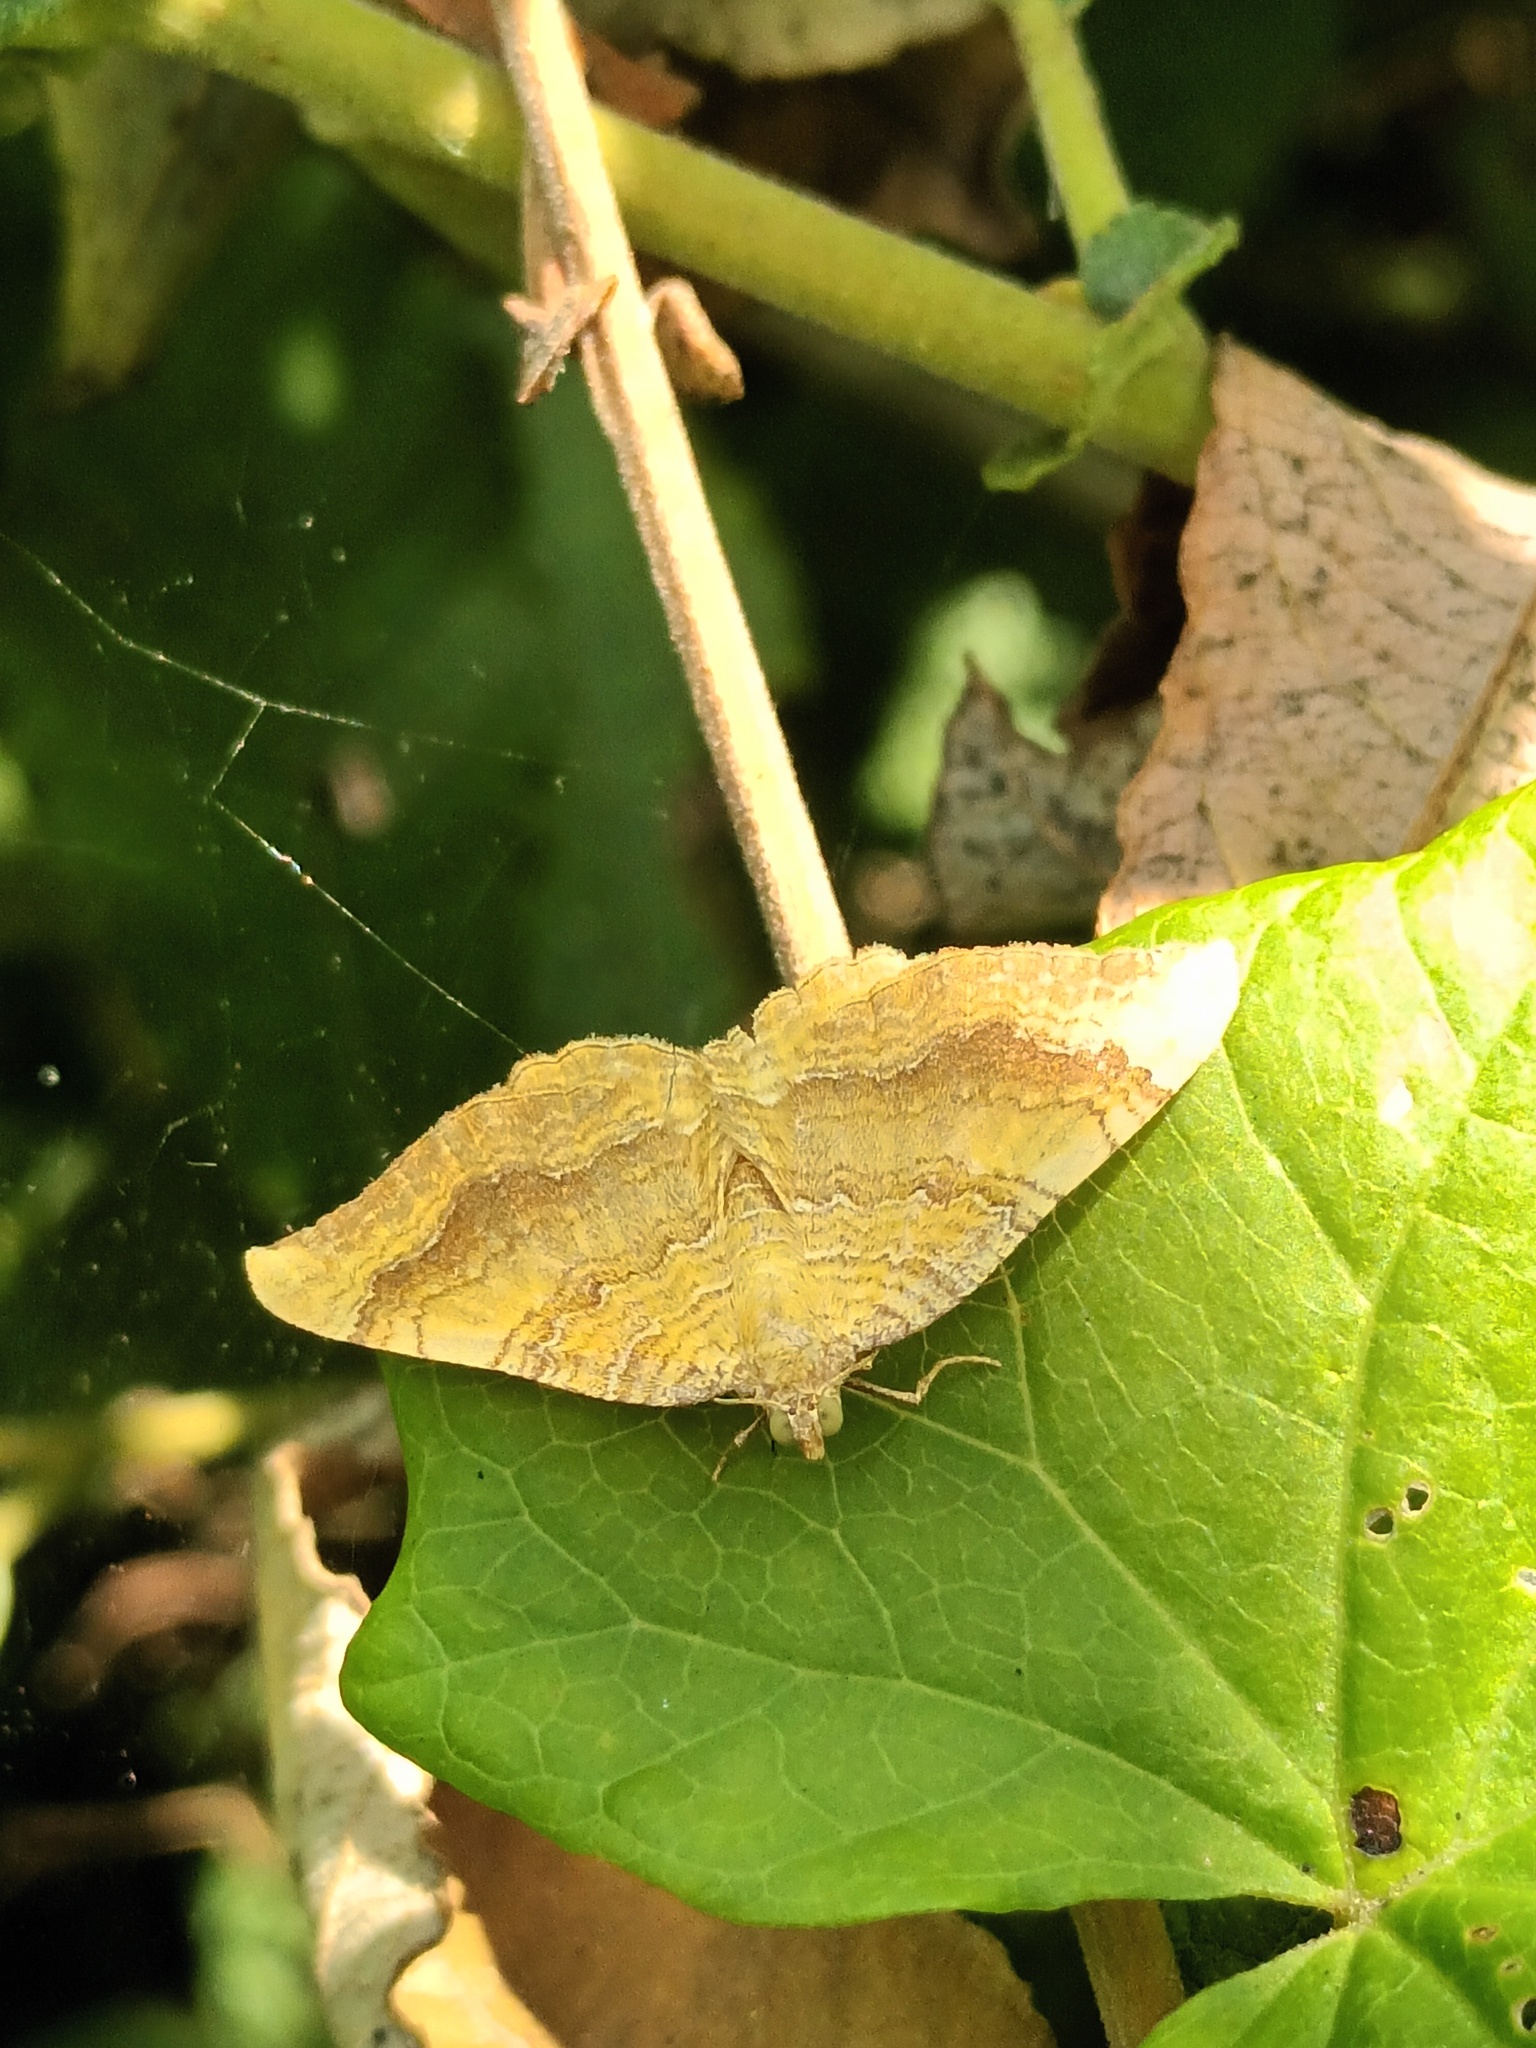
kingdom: Animalia
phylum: Arthropoda
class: Insecta
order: Lepidoptera
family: Geometridae
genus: Camptogramma
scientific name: Camptogramma bilineata
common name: Yellow shell
